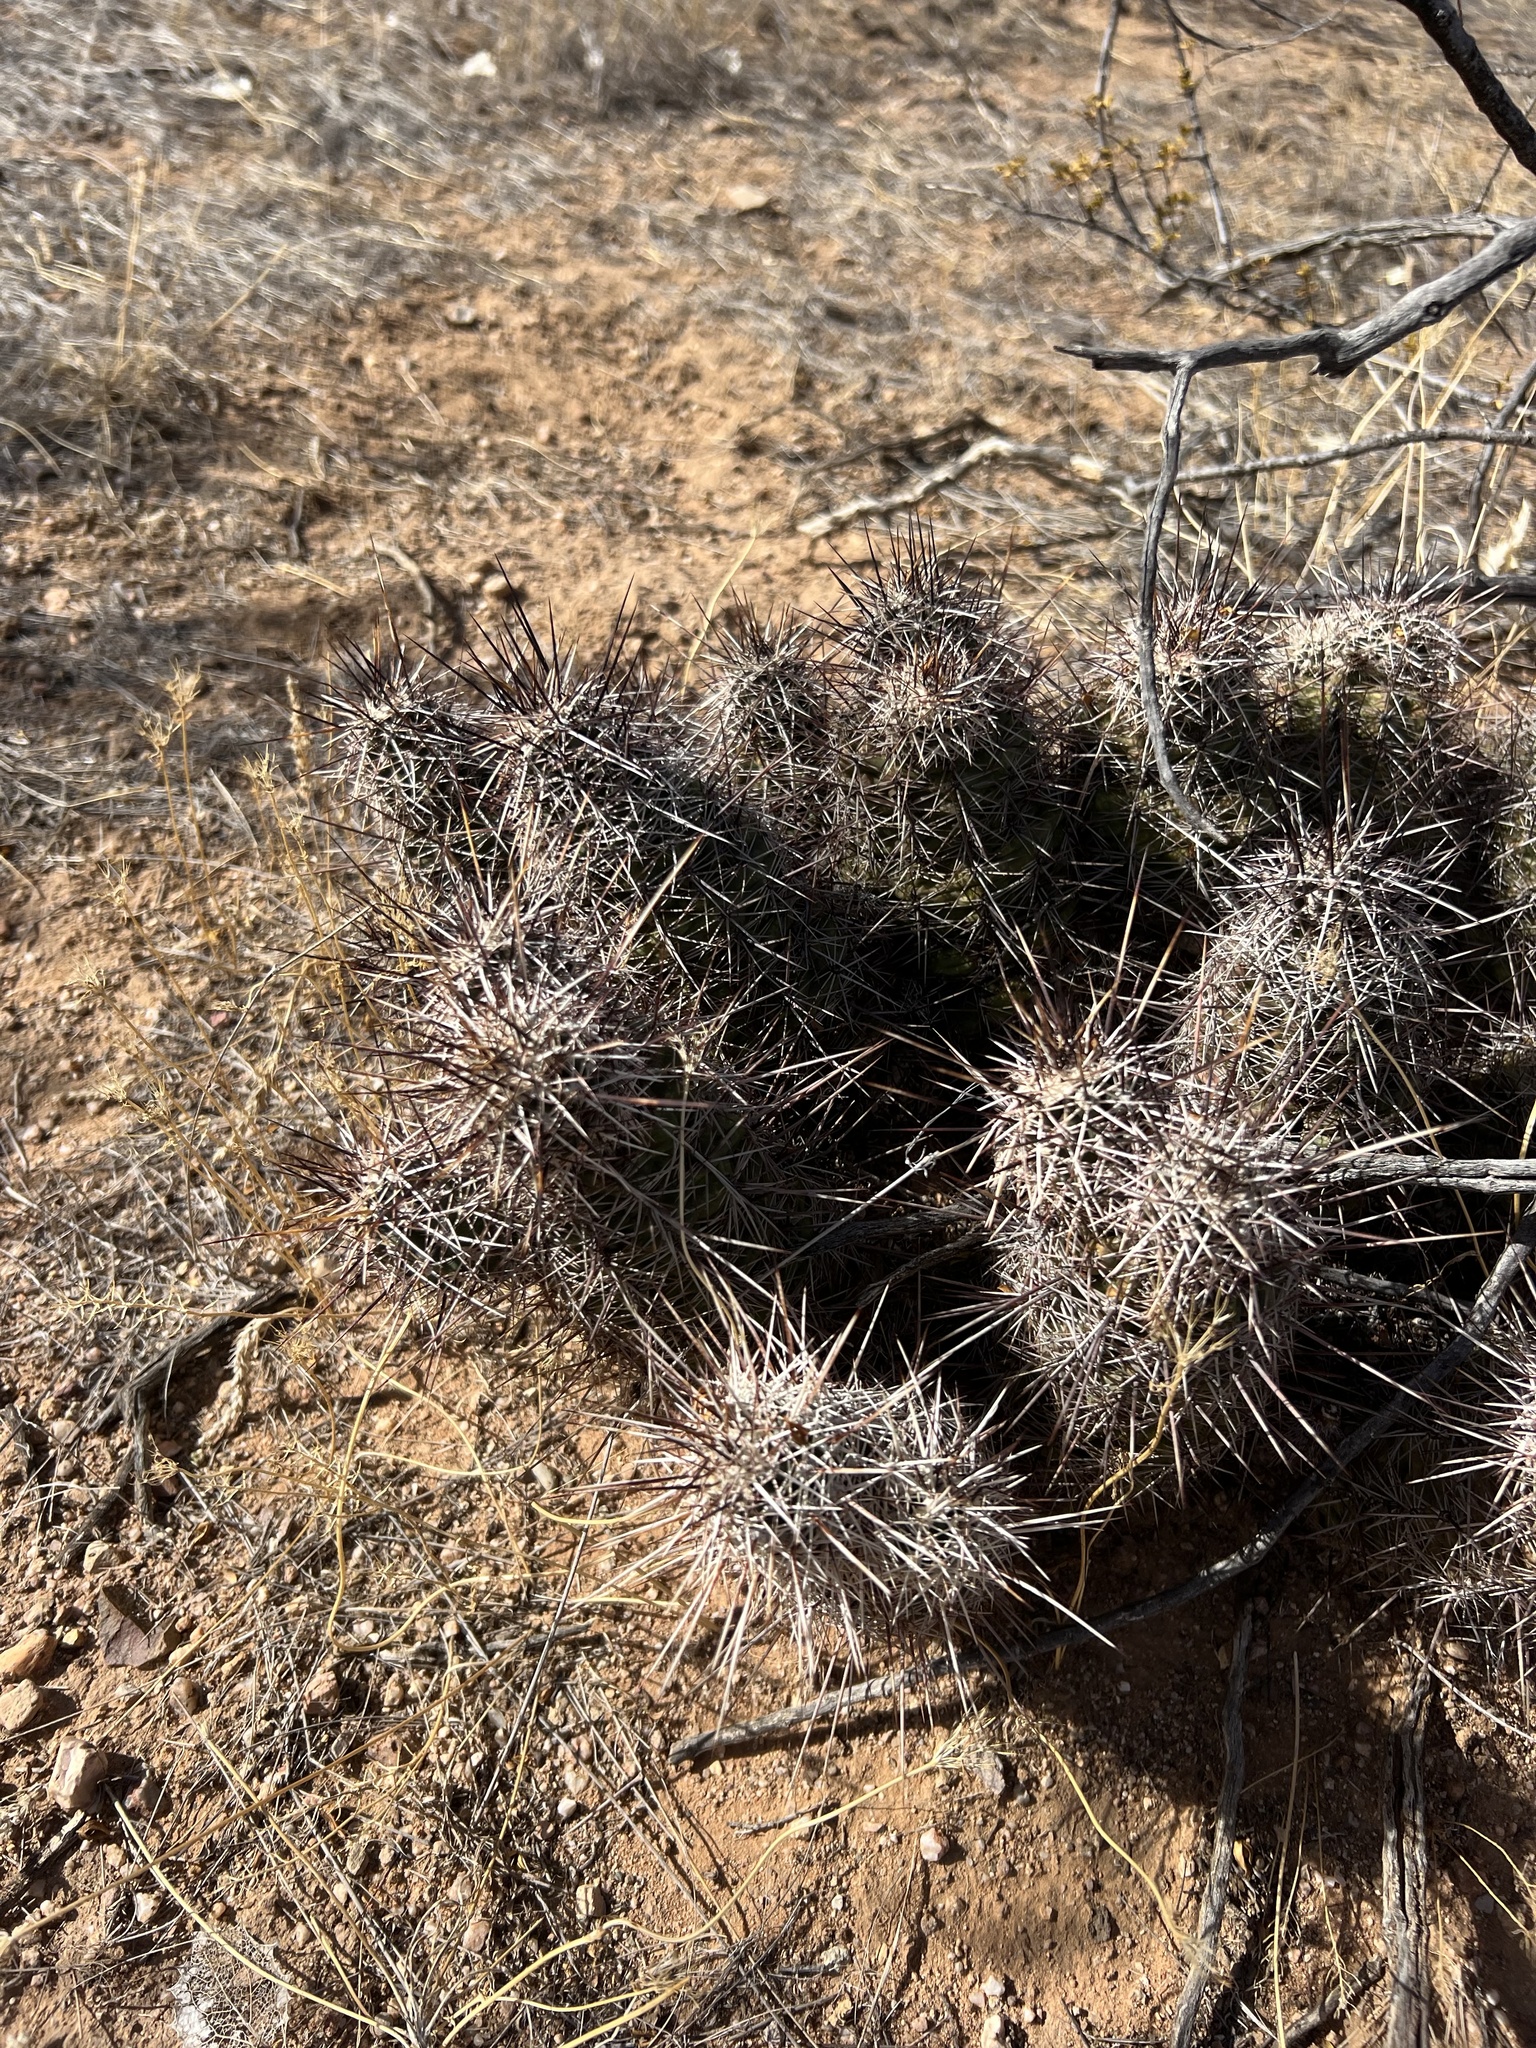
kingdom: Plantae
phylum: Tracheophyta
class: Magnoliopsida
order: Caryophyllales
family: Cactaceae
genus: Echinocereus
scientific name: Echinocereus fasciculatus
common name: Bundle hedgehog
